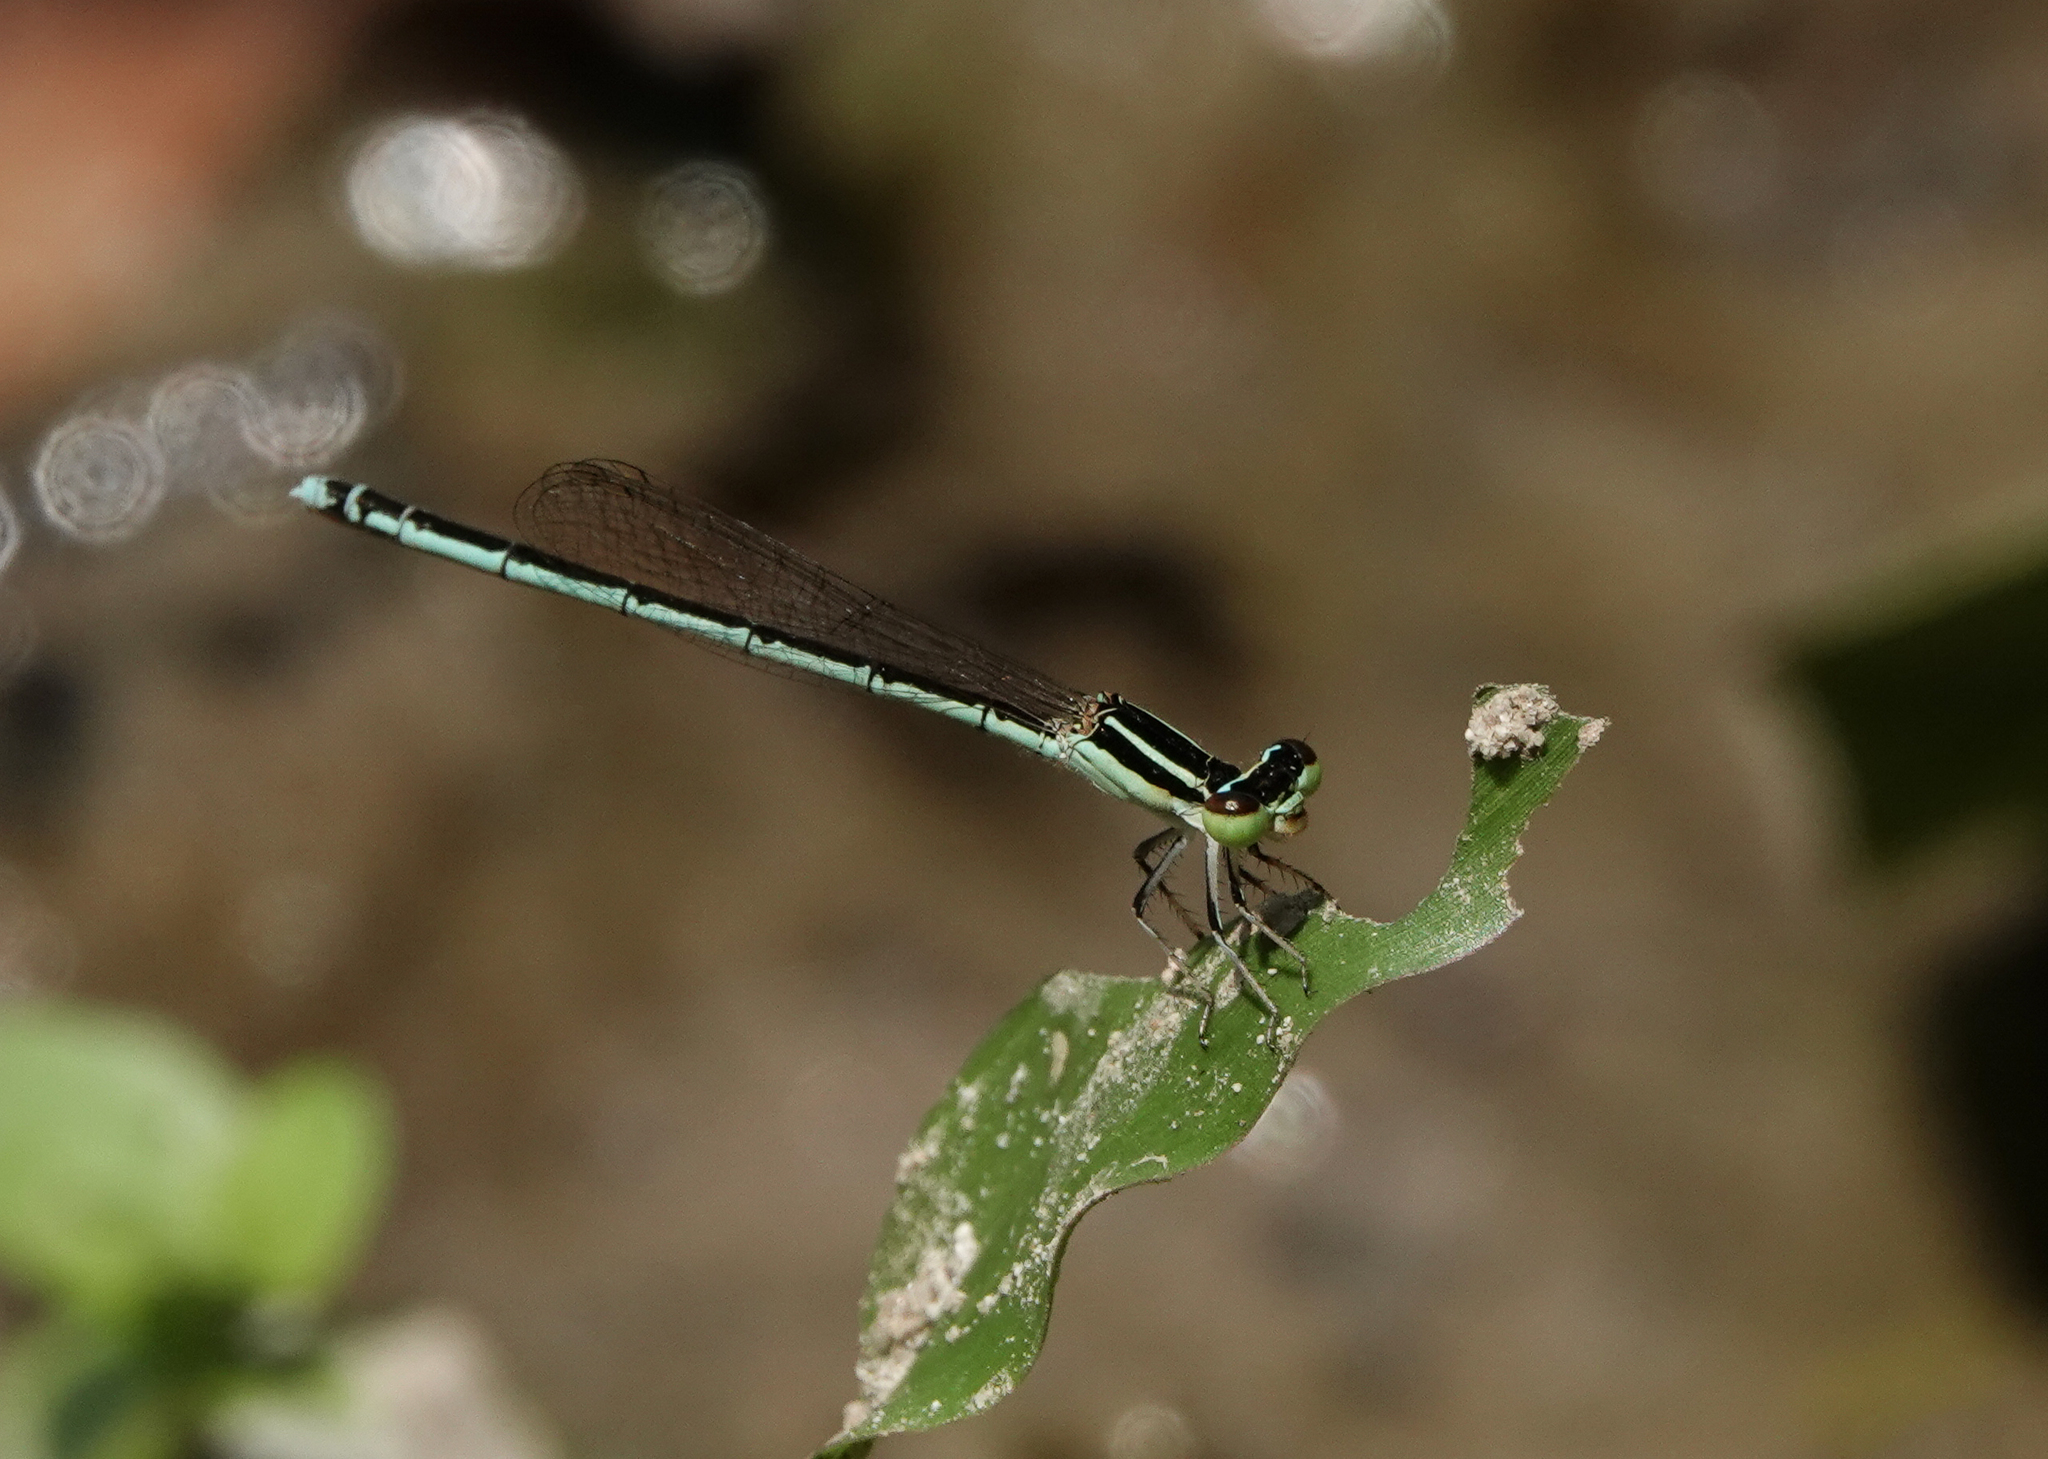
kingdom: Animalia
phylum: Arthropoda
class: Insecta
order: Odonata
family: Coenagrionidae
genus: Agriocnemis
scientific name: Agriocnemis lacteola
